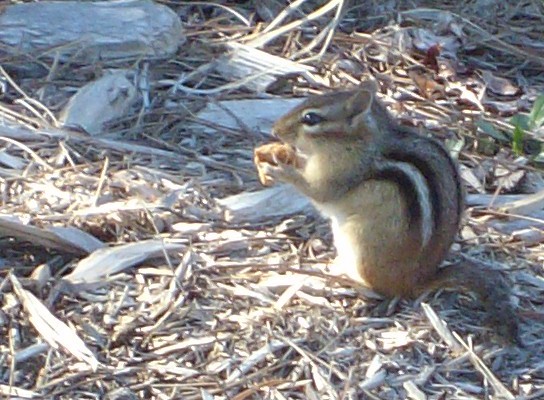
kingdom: Animalia
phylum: Chordata
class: Mammalia
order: Rodentia
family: Sciuridae
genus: Tamias
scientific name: Tamias striatus
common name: Eastern chipmunk
